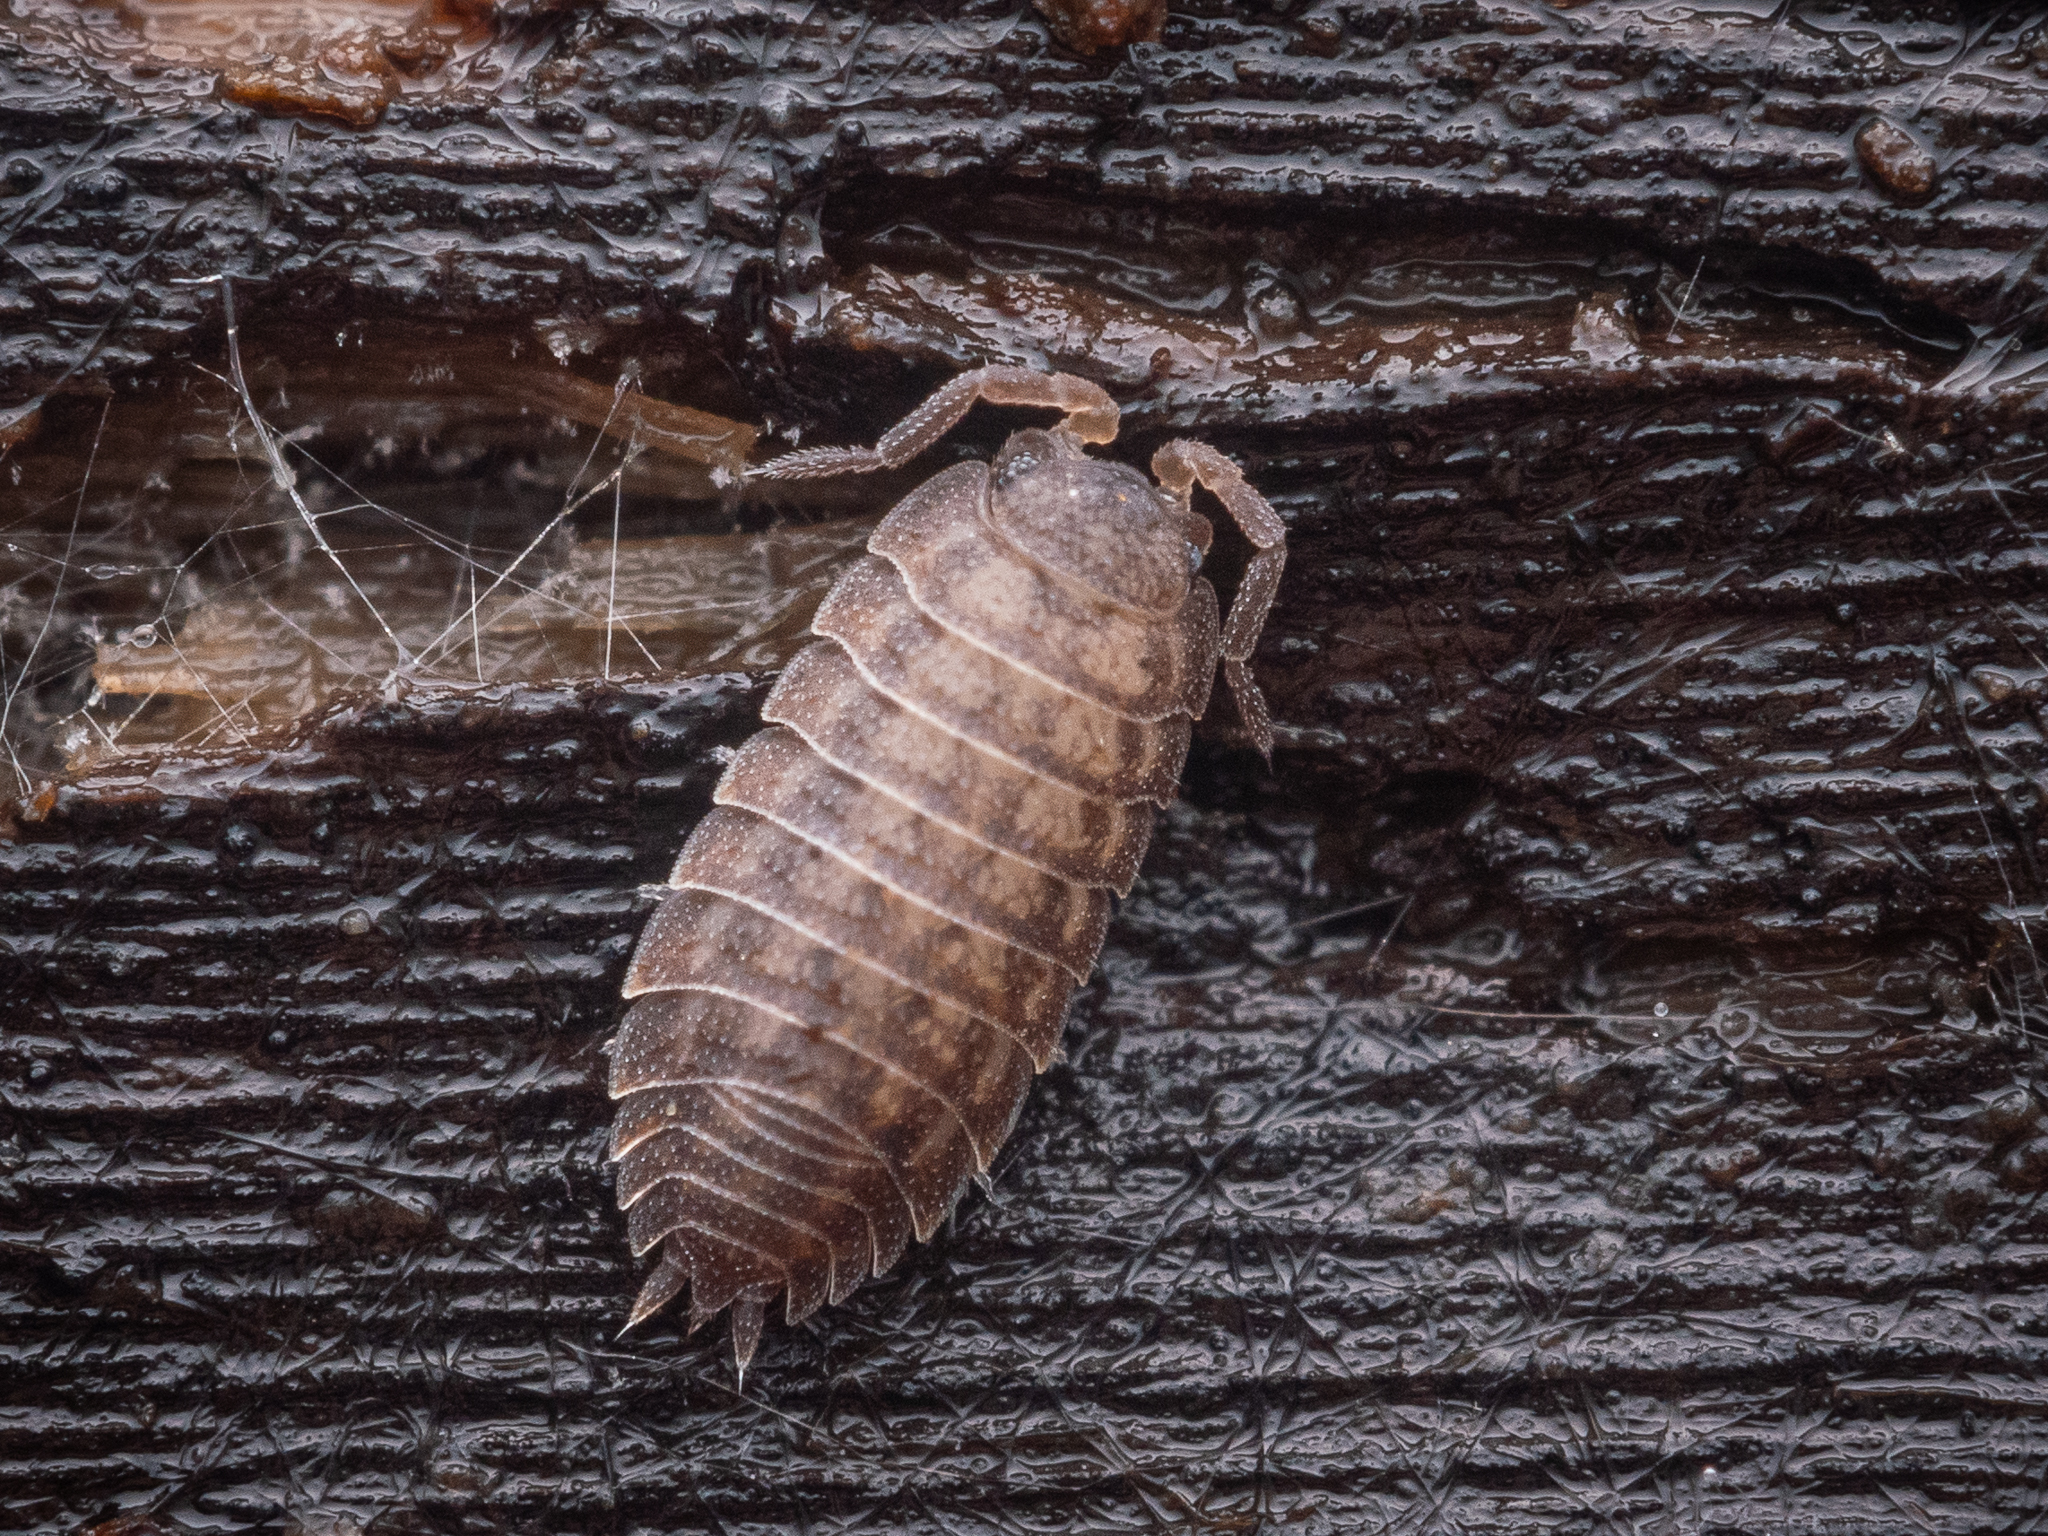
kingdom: Animalia
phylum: Arthropoda
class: Malacostraca
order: Isopoda
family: Trachelipodidae
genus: Trachelipus
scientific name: Trachelipus rathkii
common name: Isopod
